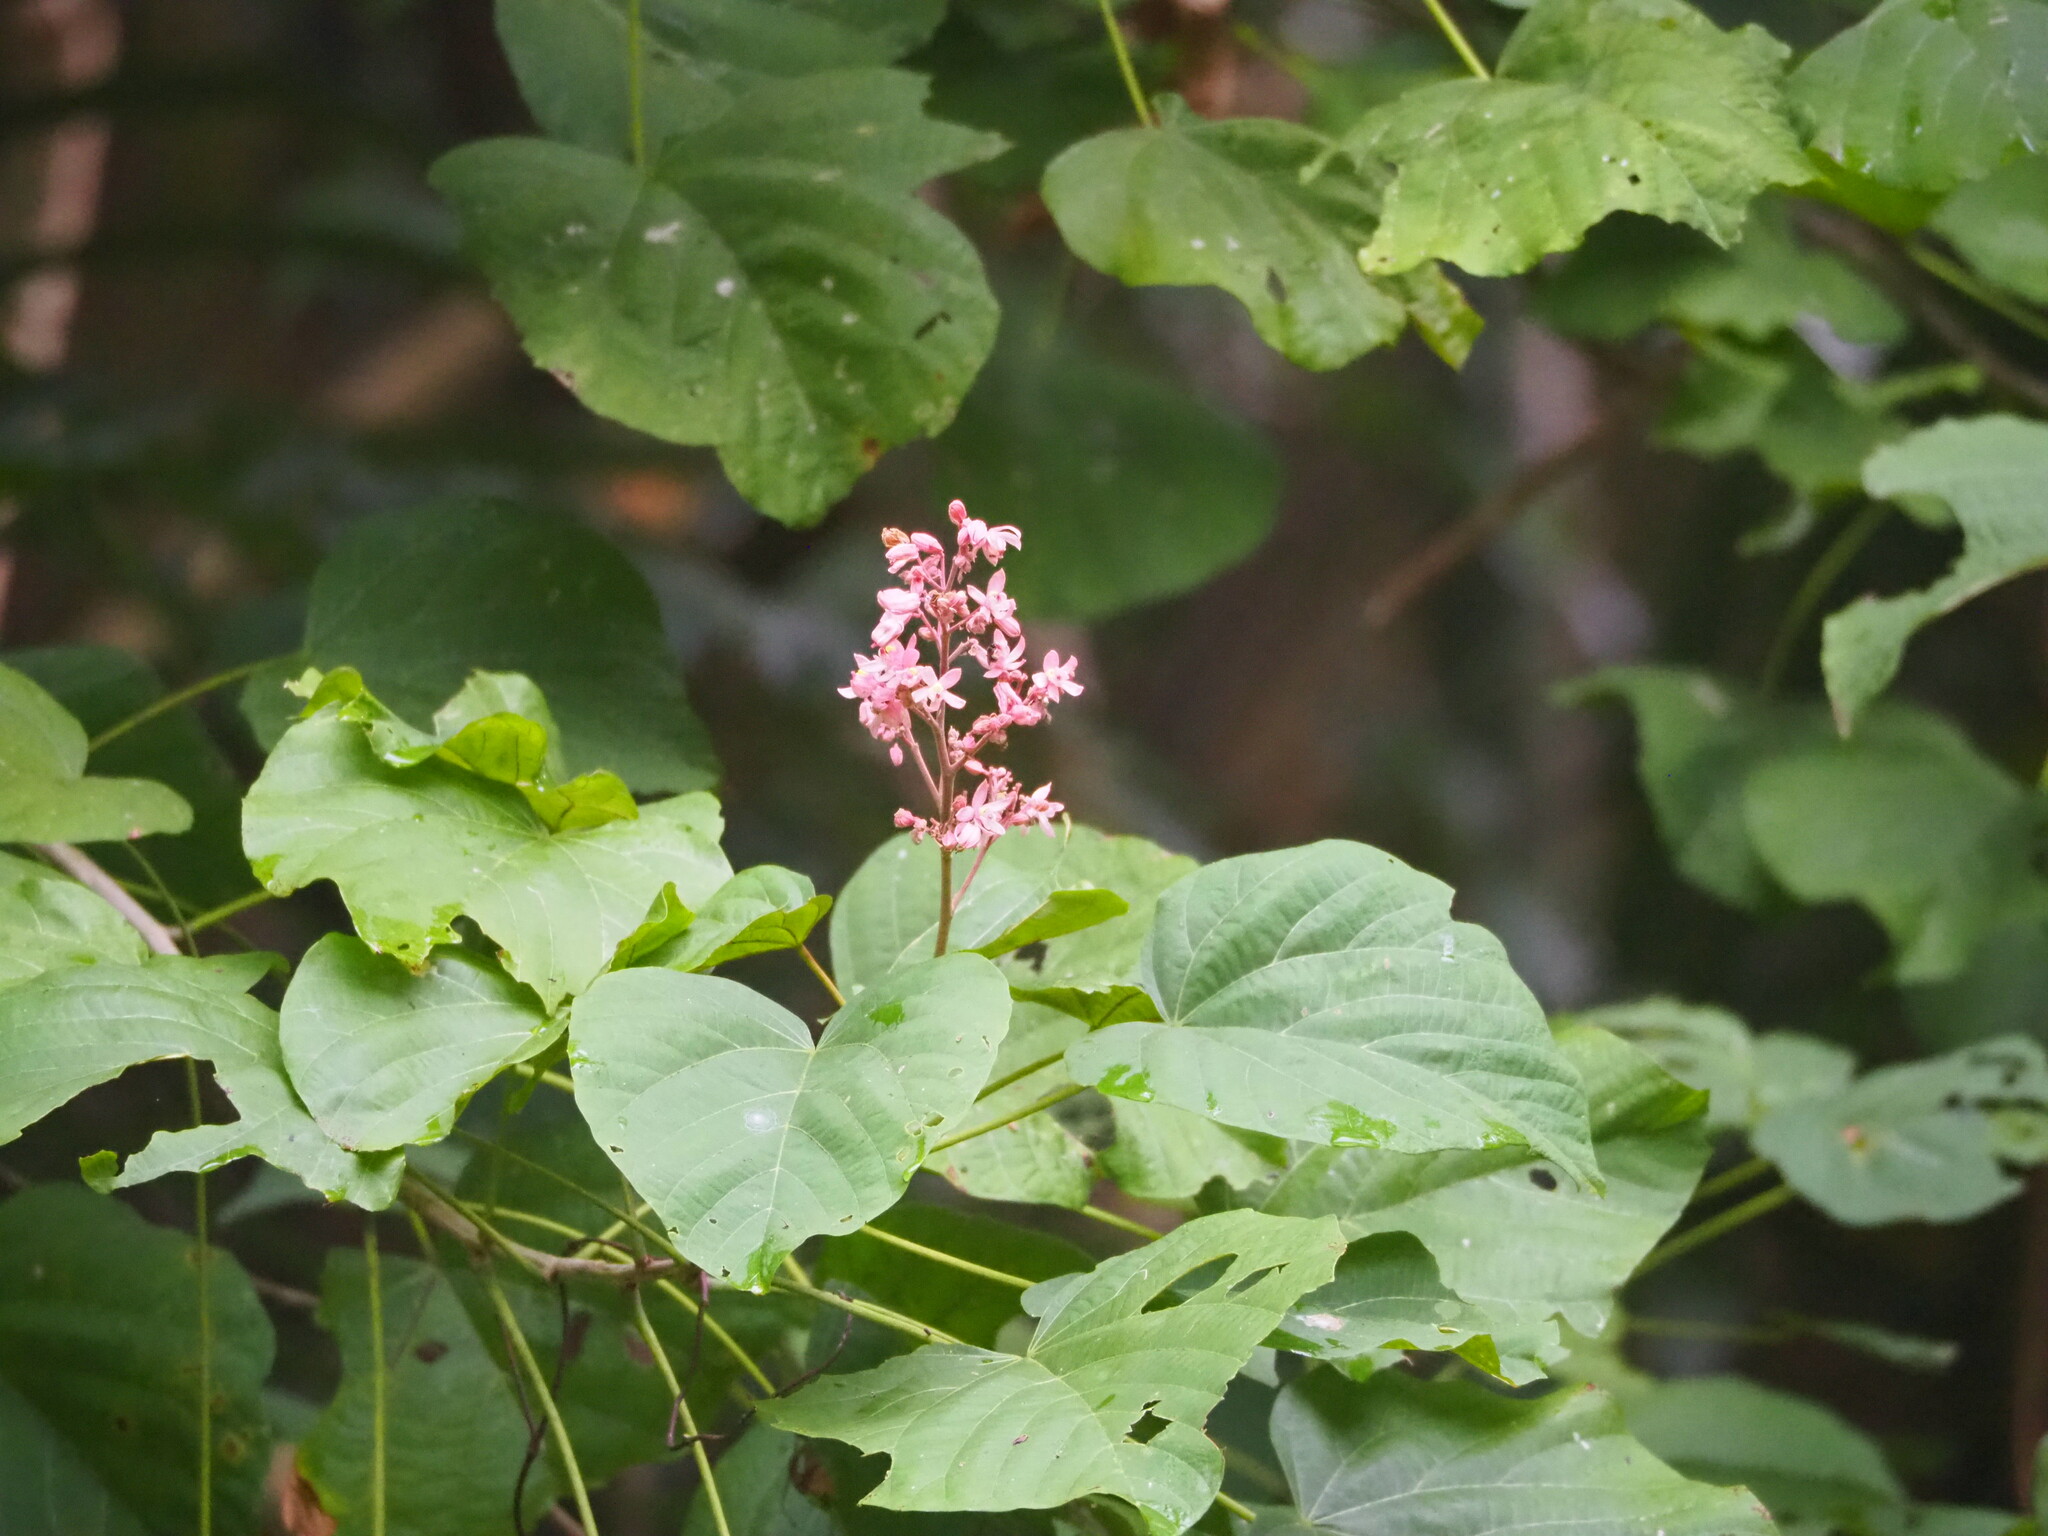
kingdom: Plantae
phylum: Tracheophyta
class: Magnoliopsida
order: Malvales
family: Malvaceae
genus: Kleinhovia
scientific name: Kleinhovia hospita
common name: Guest-tree
